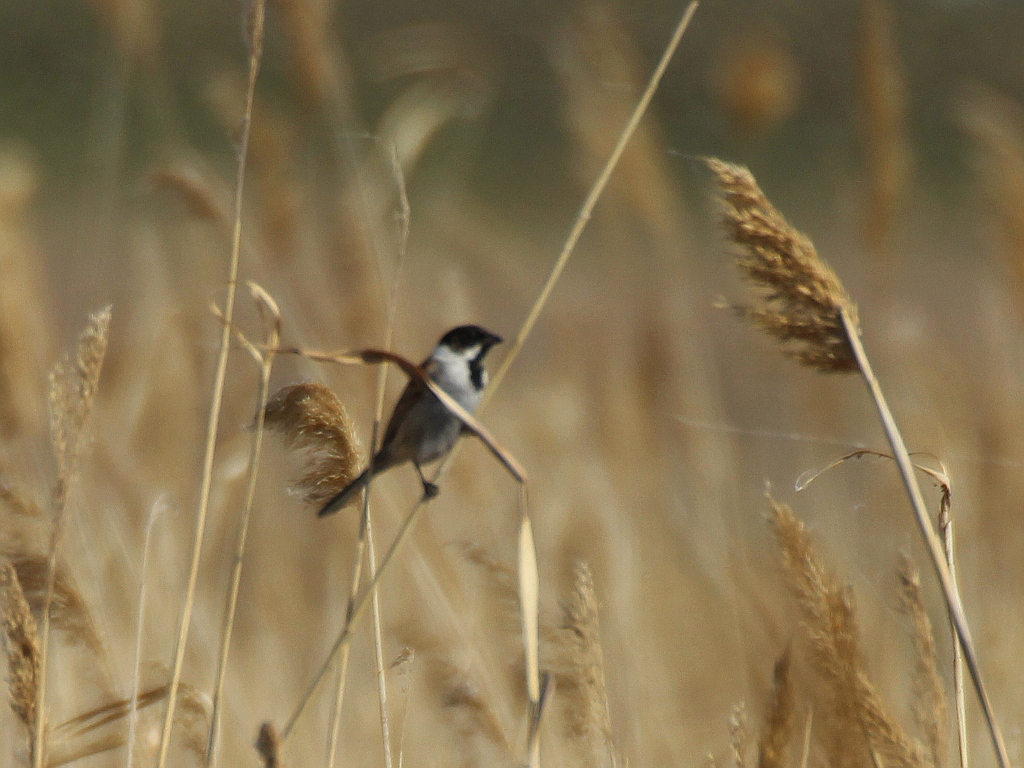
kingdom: Animalia
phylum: Chordata
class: Aves
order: Passeriformes
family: Emberizidae
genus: Emberiza
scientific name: Emberiza schoeniclus
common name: Reed bunting
